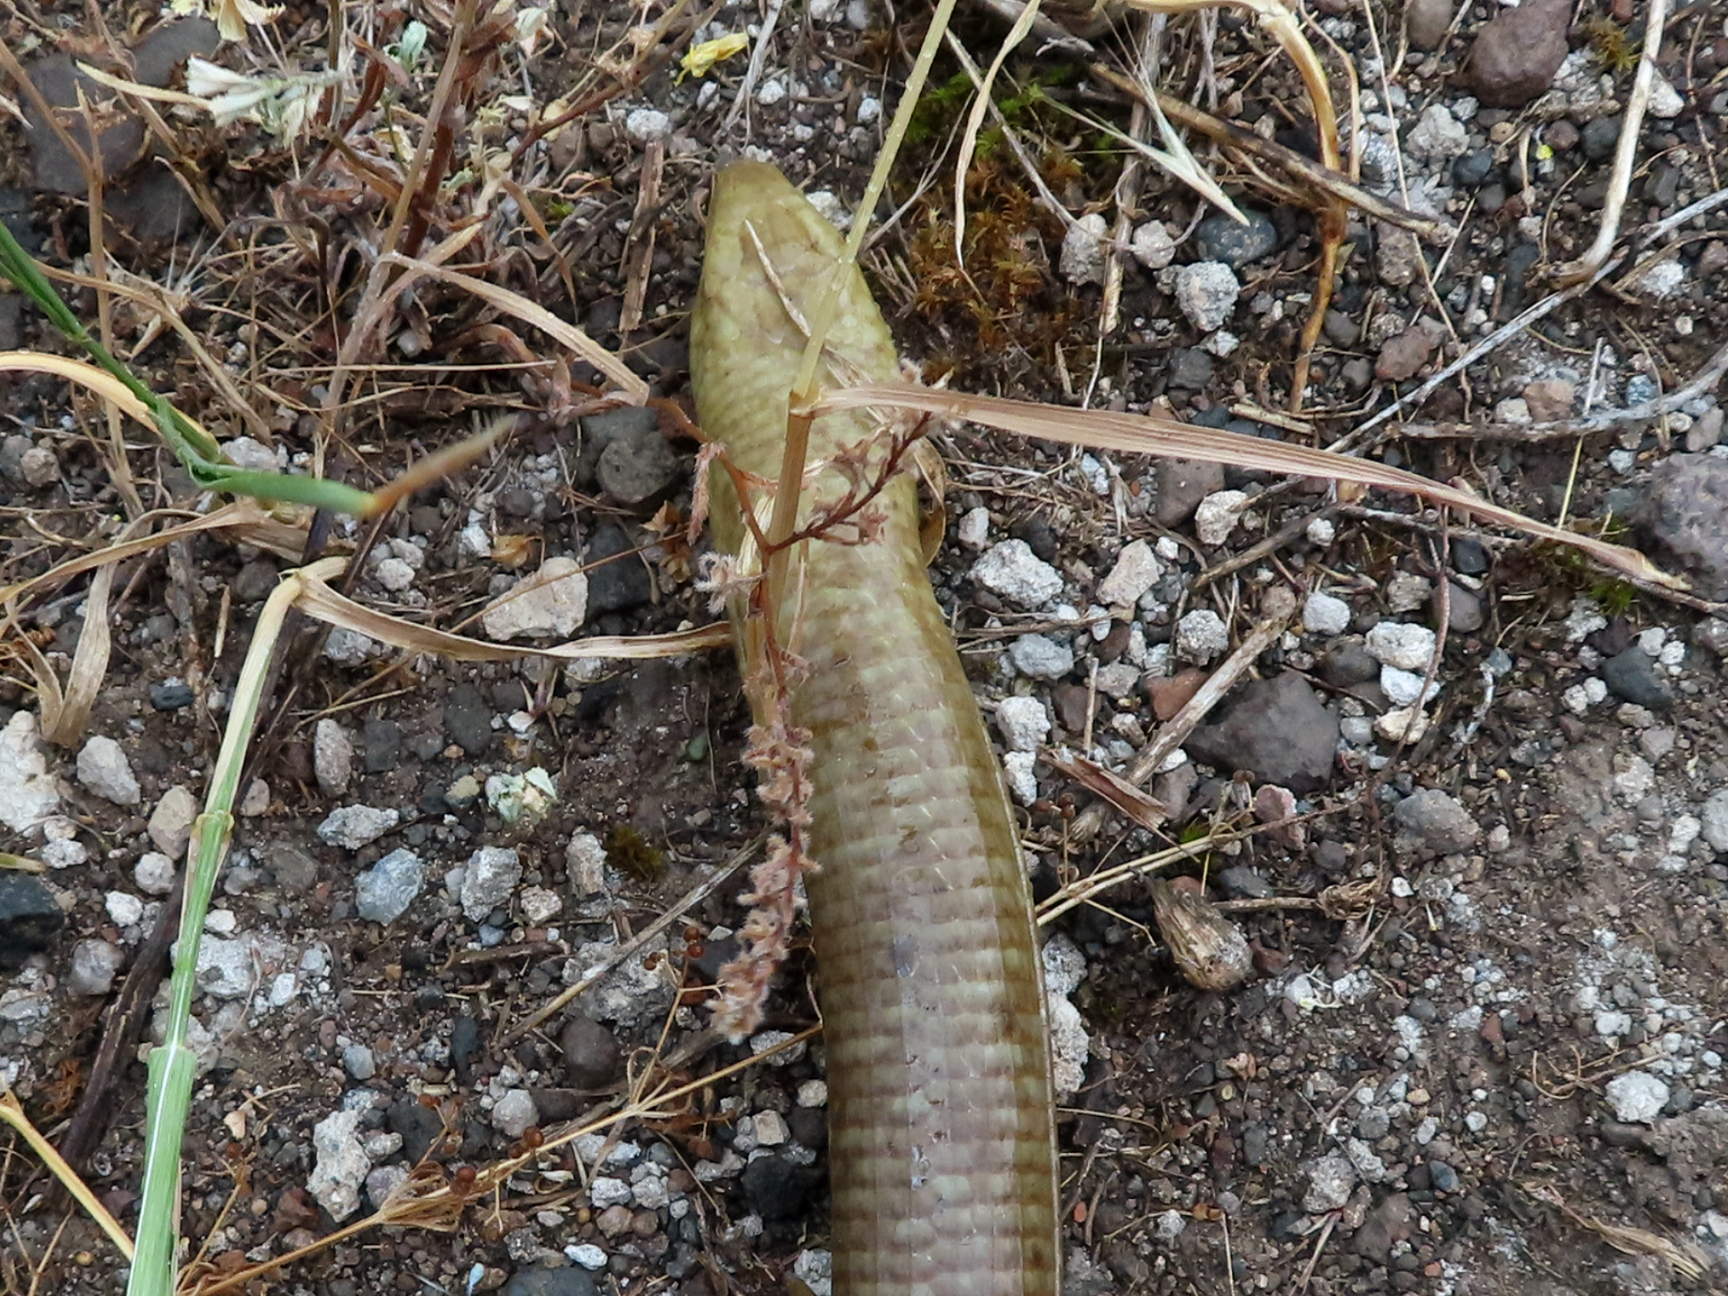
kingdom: Animalia
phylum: Chordata
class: Squamata
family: Anguidae
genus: Pseudopus
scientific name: Pseudopus apodus
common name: European glass lizard
